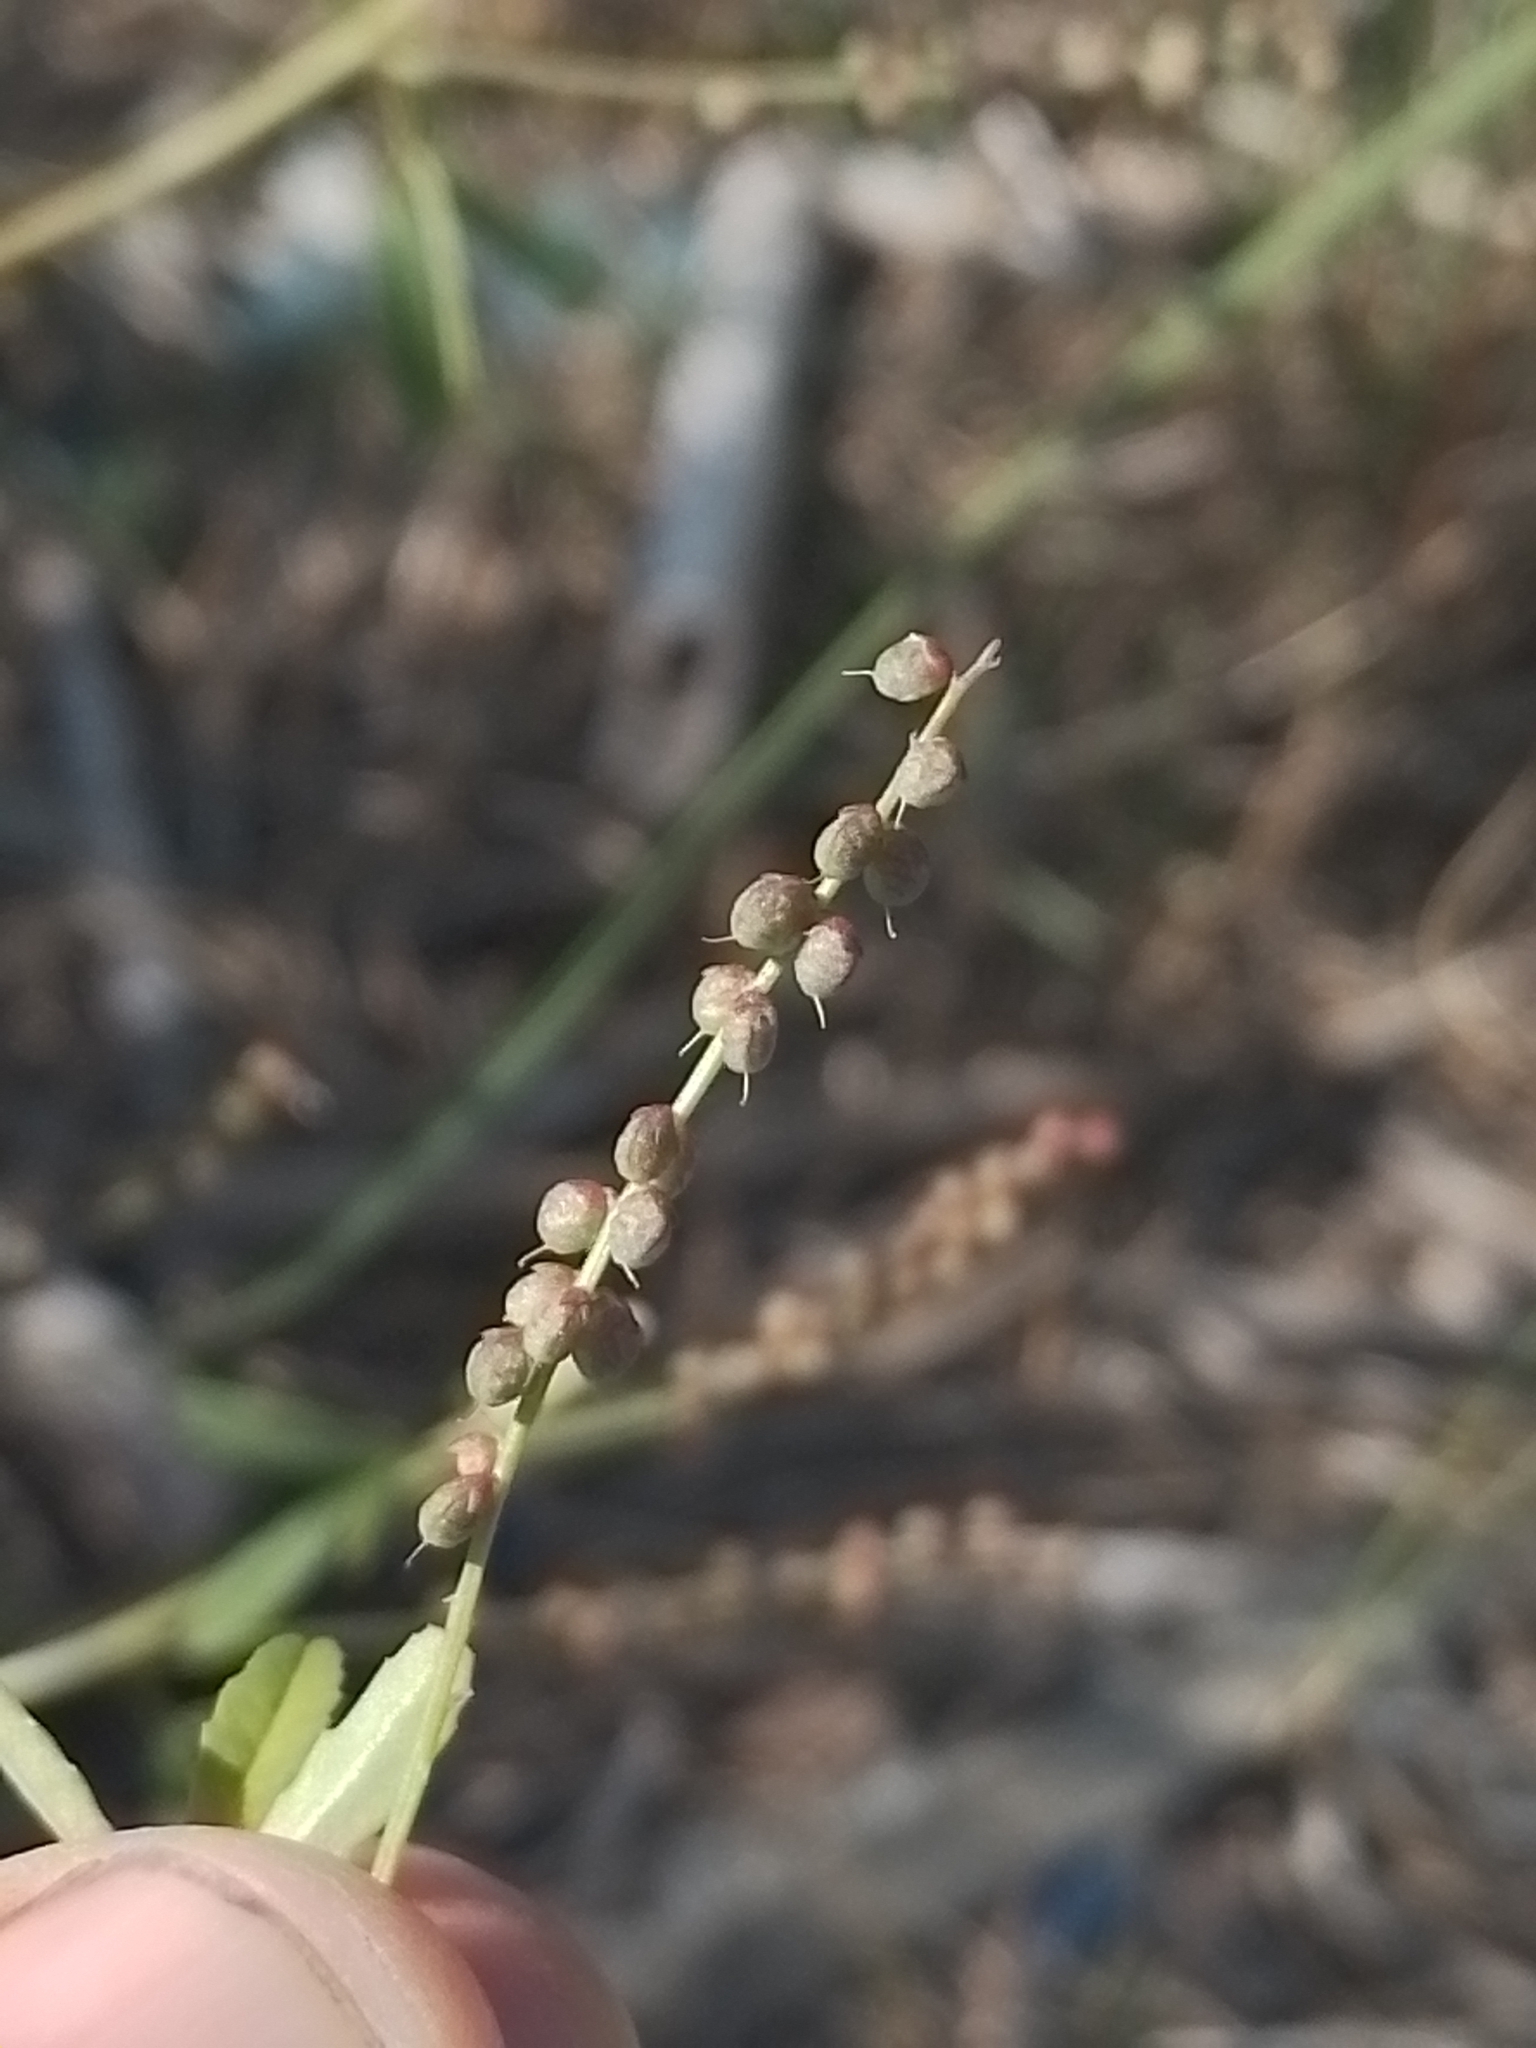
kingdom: Plantae
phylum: Tracheophyta
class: Magnoliopsida
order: Fabales
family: Fabaceae
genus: Melilotus
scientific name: Melilotus indicus
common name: Small melilot
